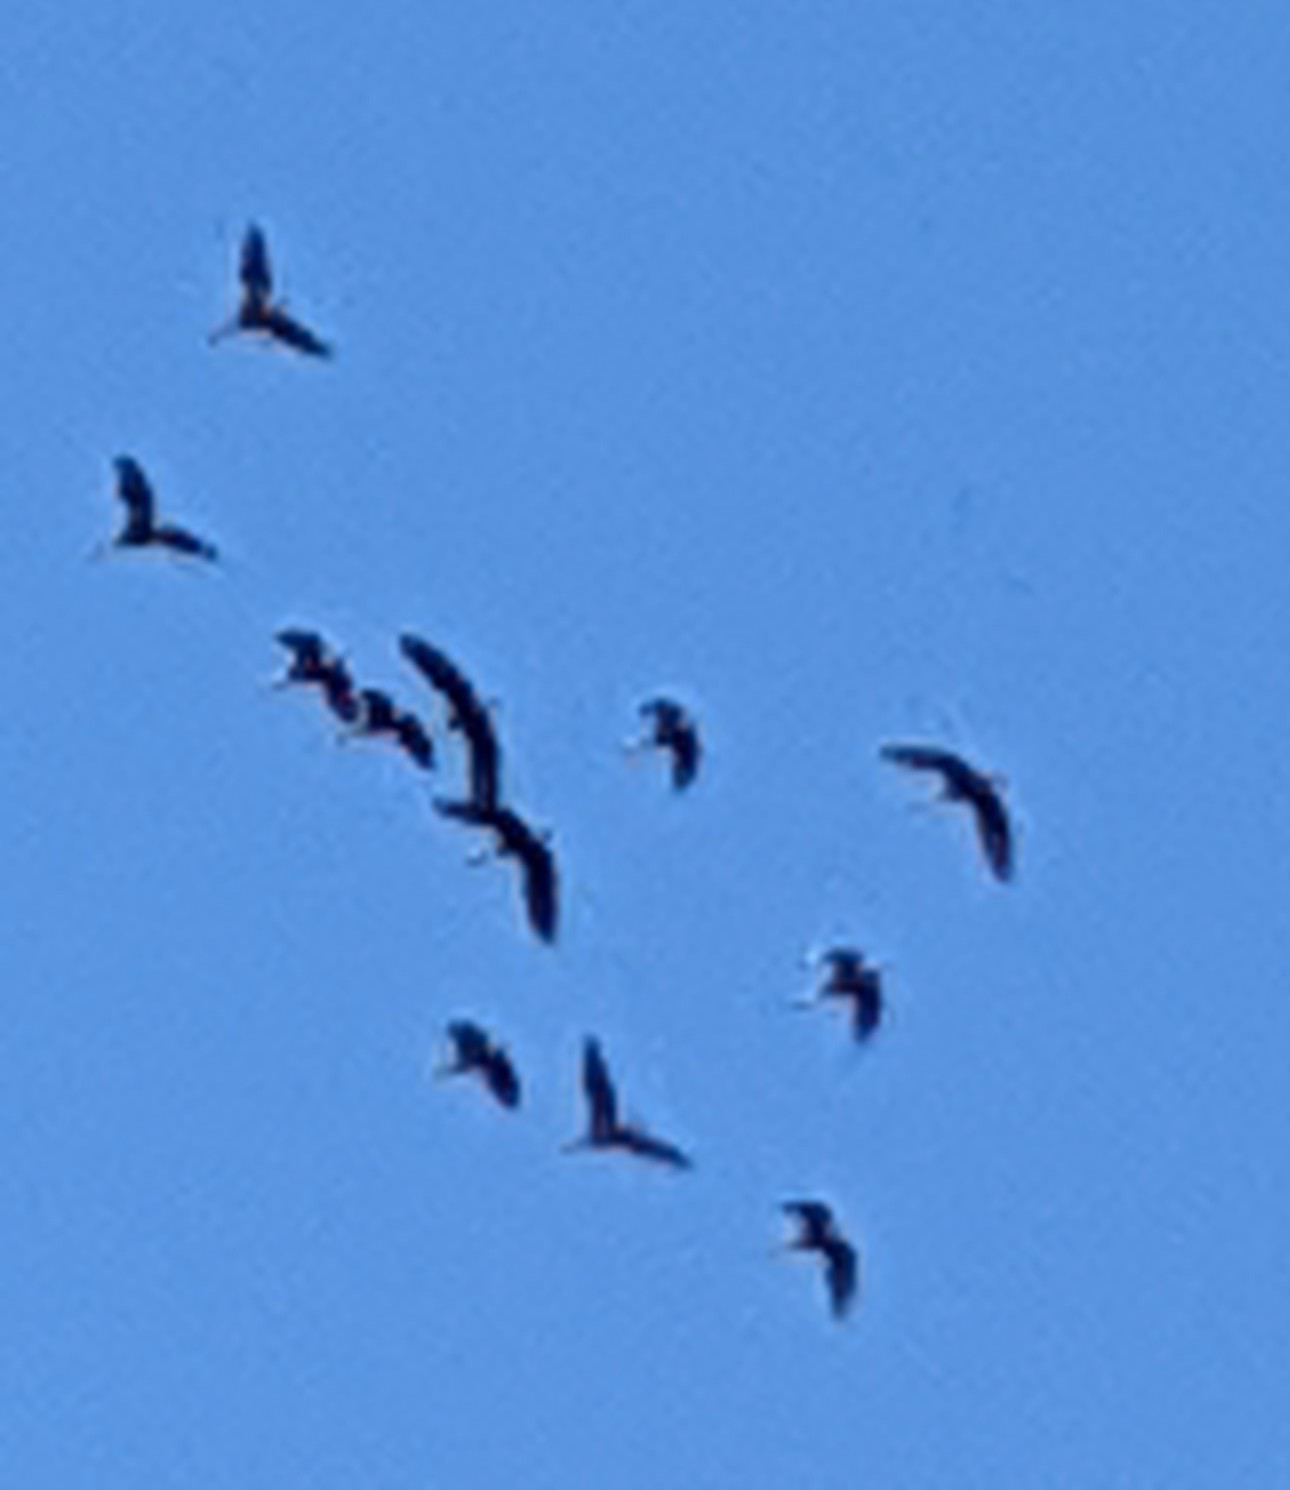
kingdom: Animalia
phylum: Chordata
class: Aves
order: Anseriformes
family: Anatidae
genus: Dendrocygna
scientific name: Dendrocygna autumnalis
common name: Black-bellied whistling duck
